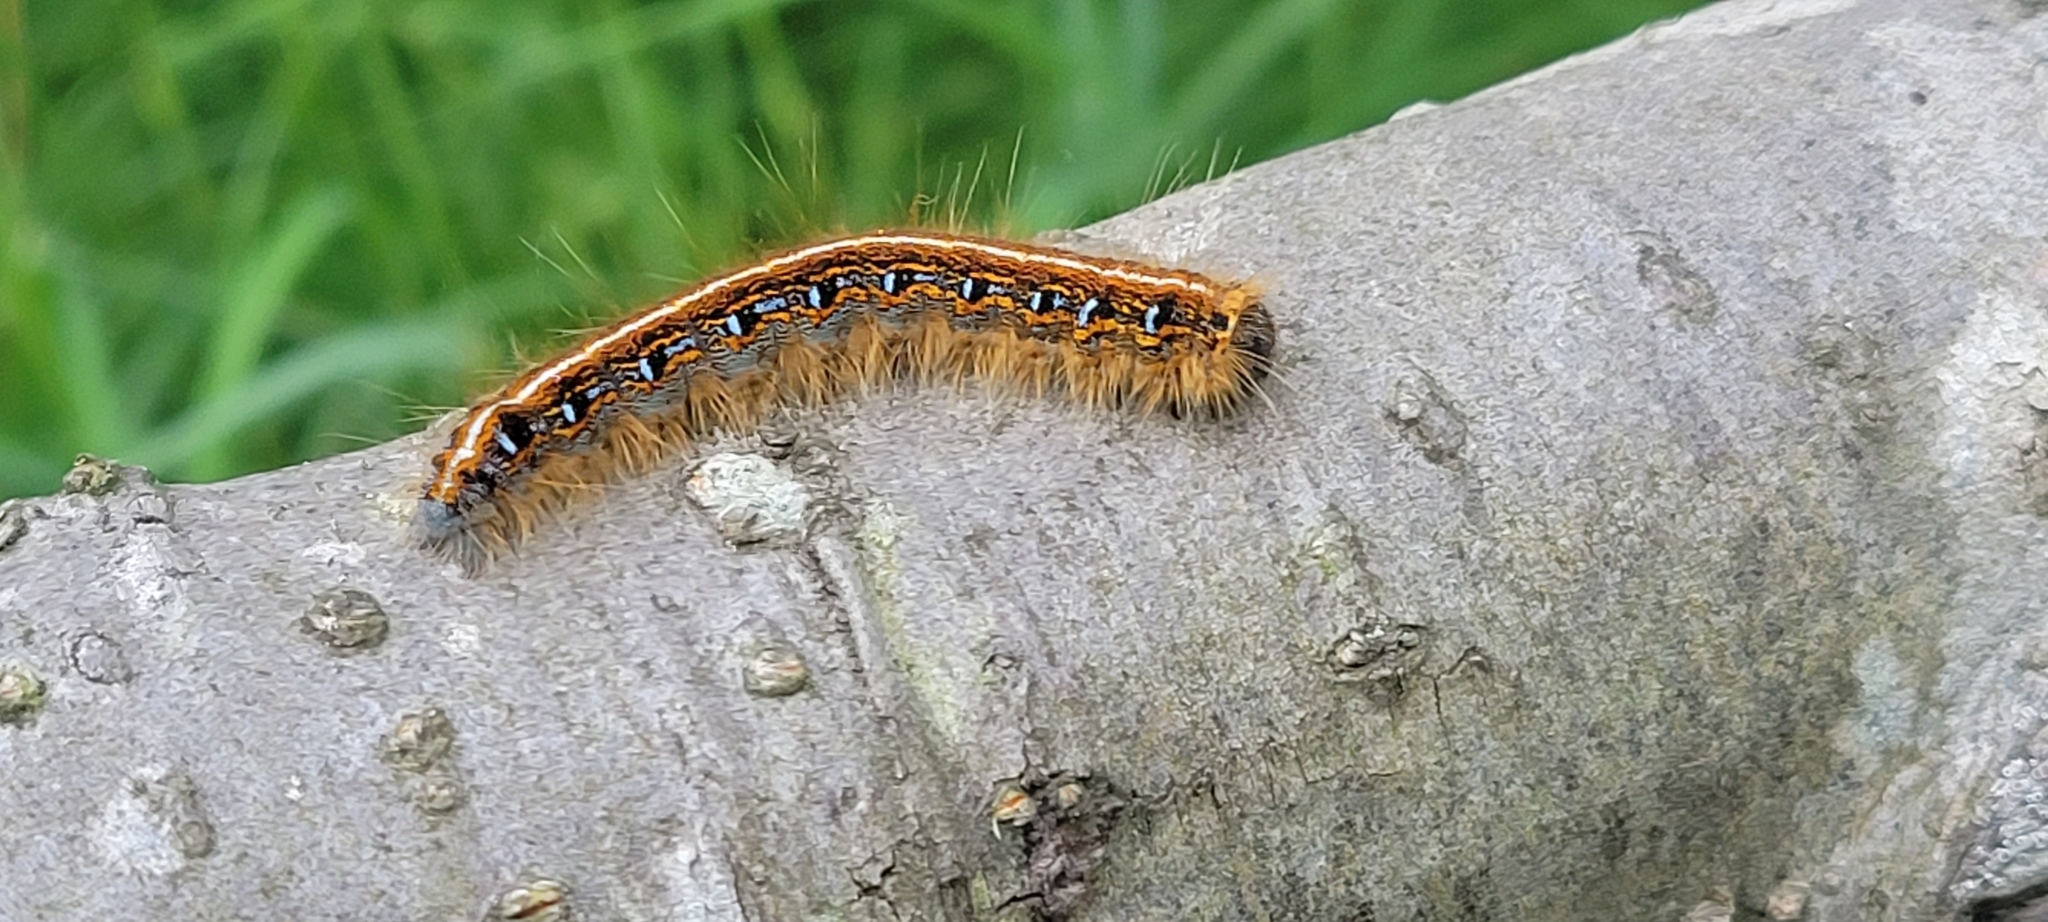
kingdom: Animalia
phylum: Arthropoda
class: Insecta
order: Lepidoptera
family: Lasiocampidae
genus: Malacosoma
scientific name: Malacosoma americana
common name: Eastern tent caterpillar moth
